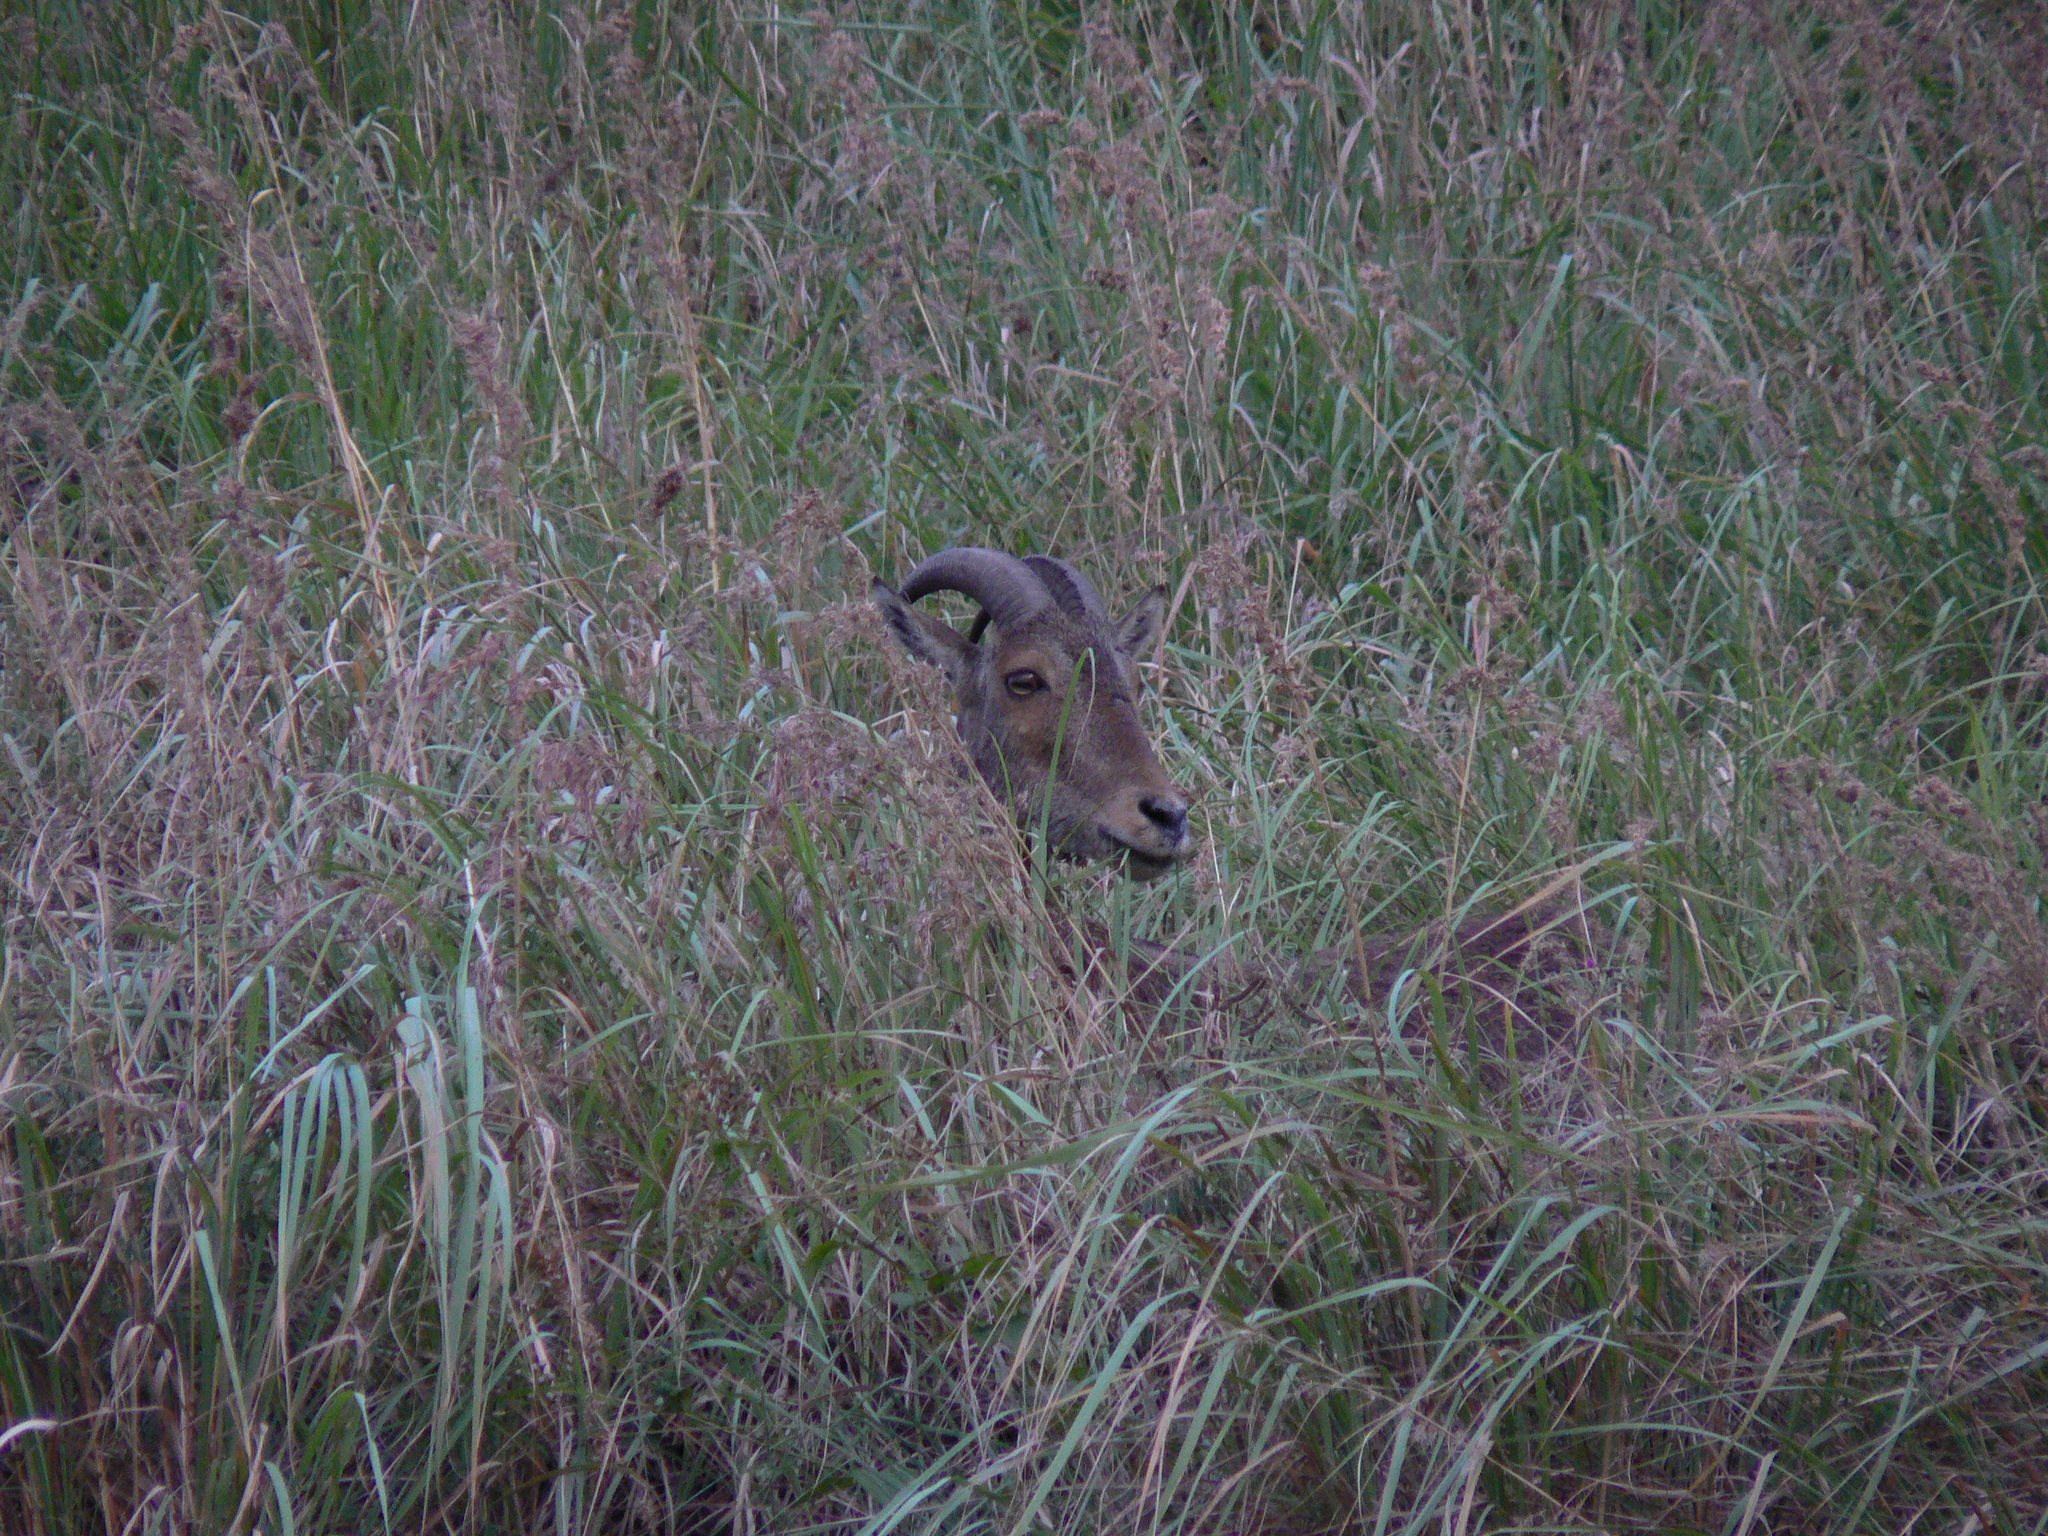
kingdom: Animalia
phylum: Chordata
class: Mammalia
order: Artiodactyla
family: Bovidae
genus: Hemitragus
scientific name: Hemitragus hylocrius
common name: Nilgiri tahr
